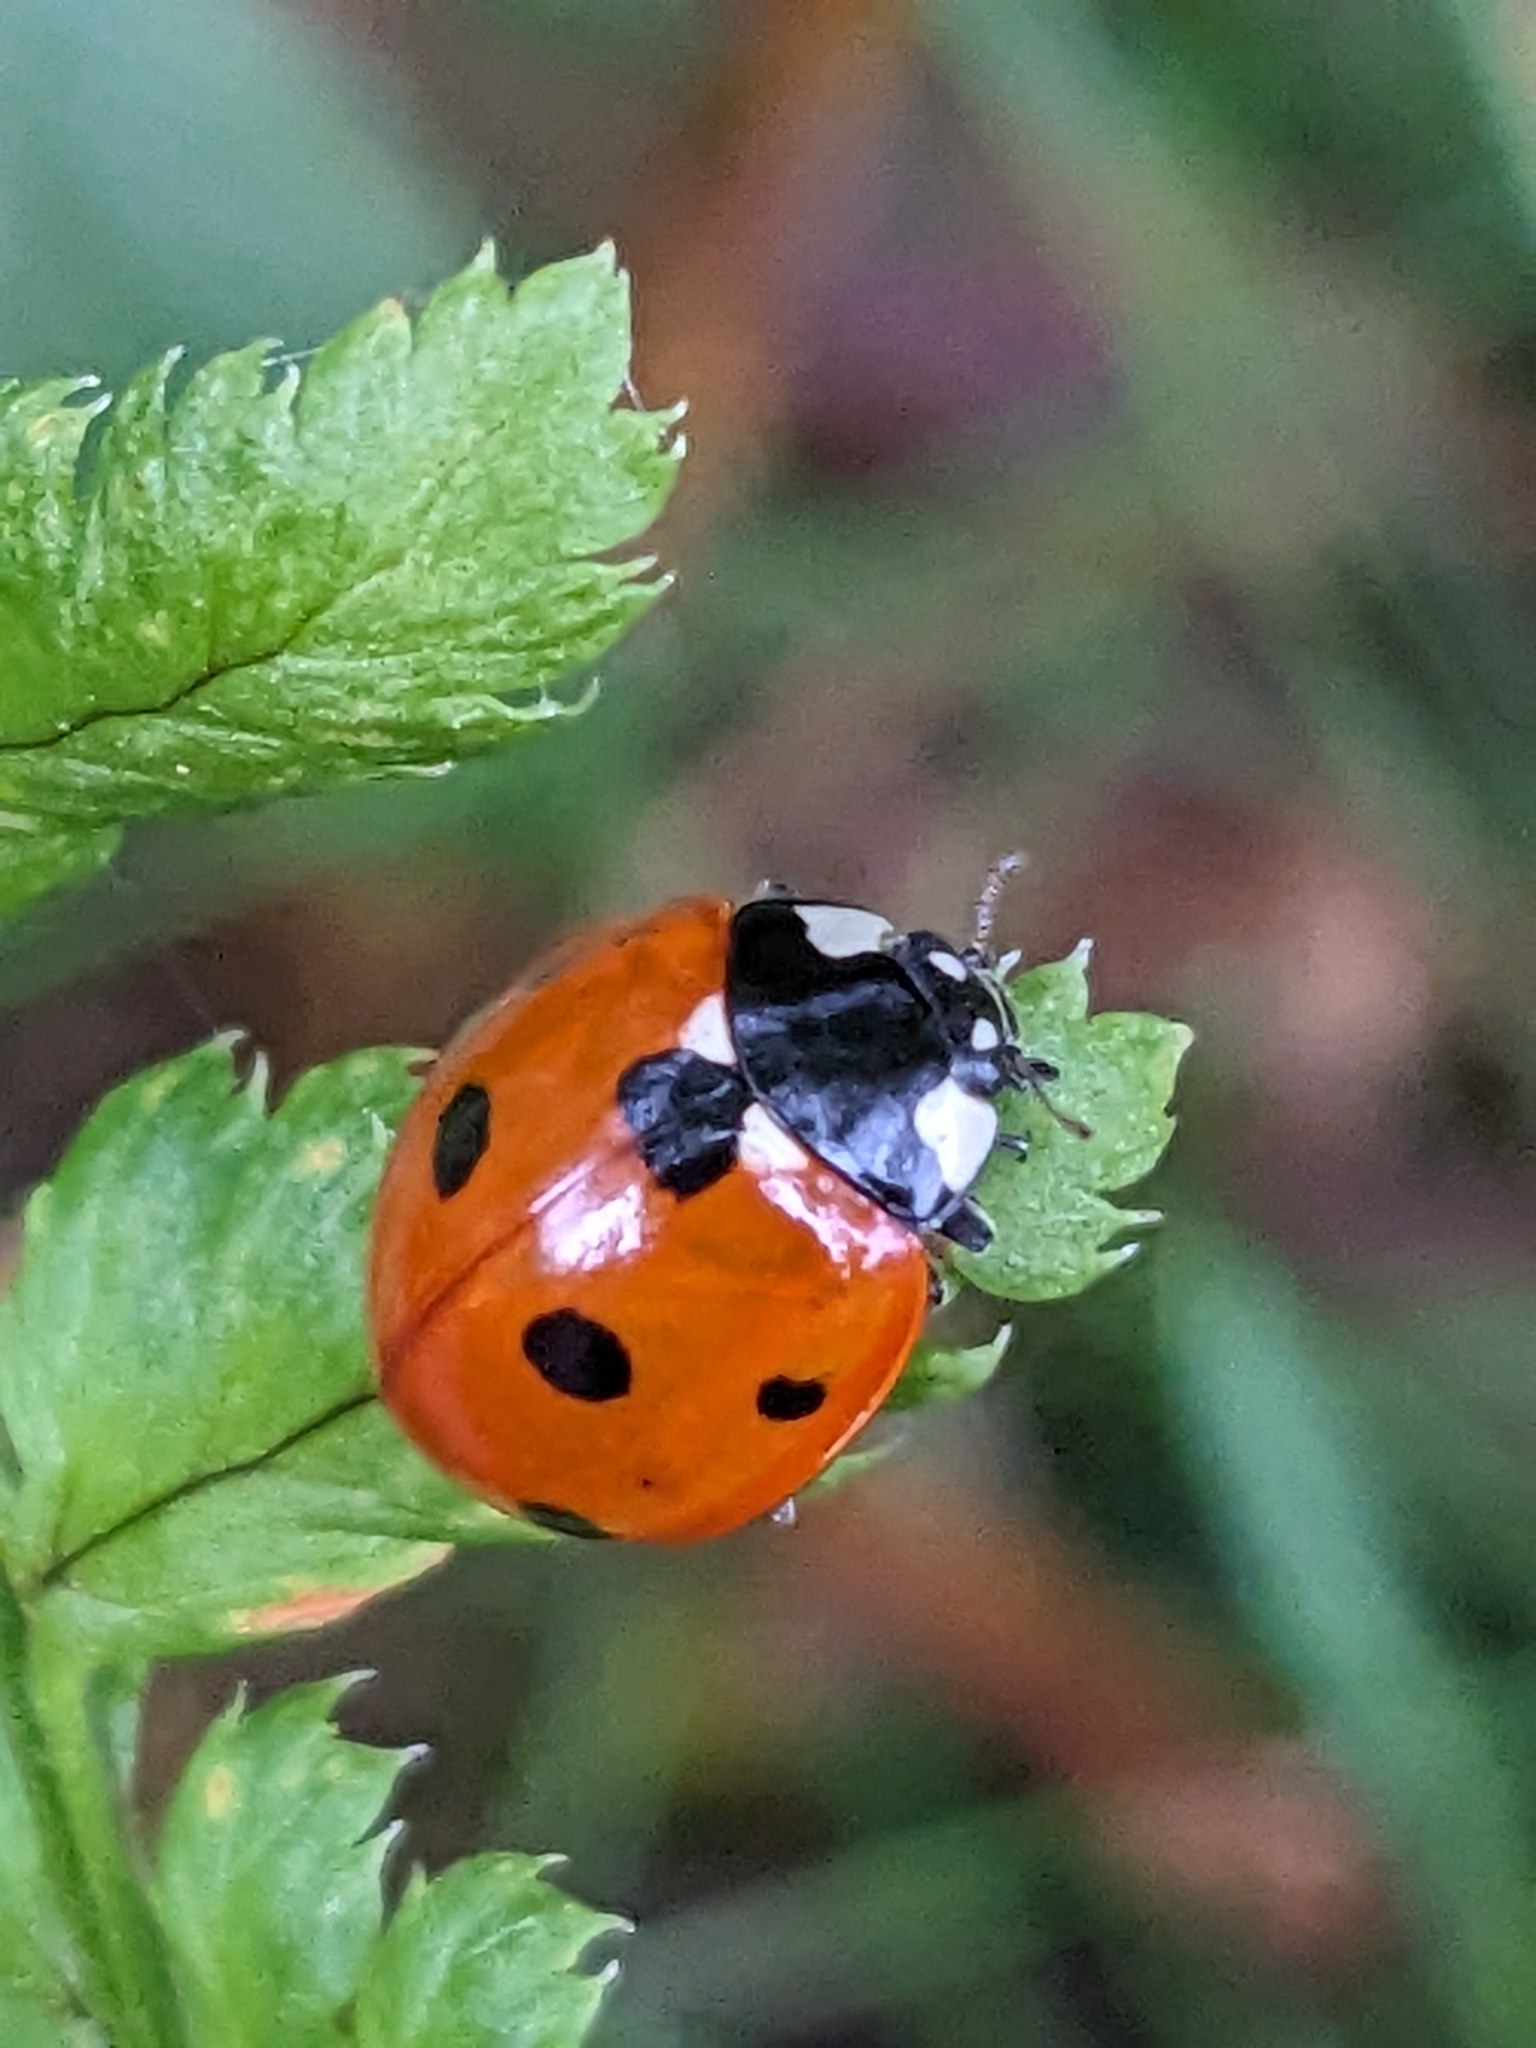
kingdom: Animalia
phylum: Arthropoda
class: Insecta
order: Coleoptera
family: Coccinellidae
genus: Coccinella
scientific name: Coccinella septempunctata
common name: Sevenspotted lady beetle
